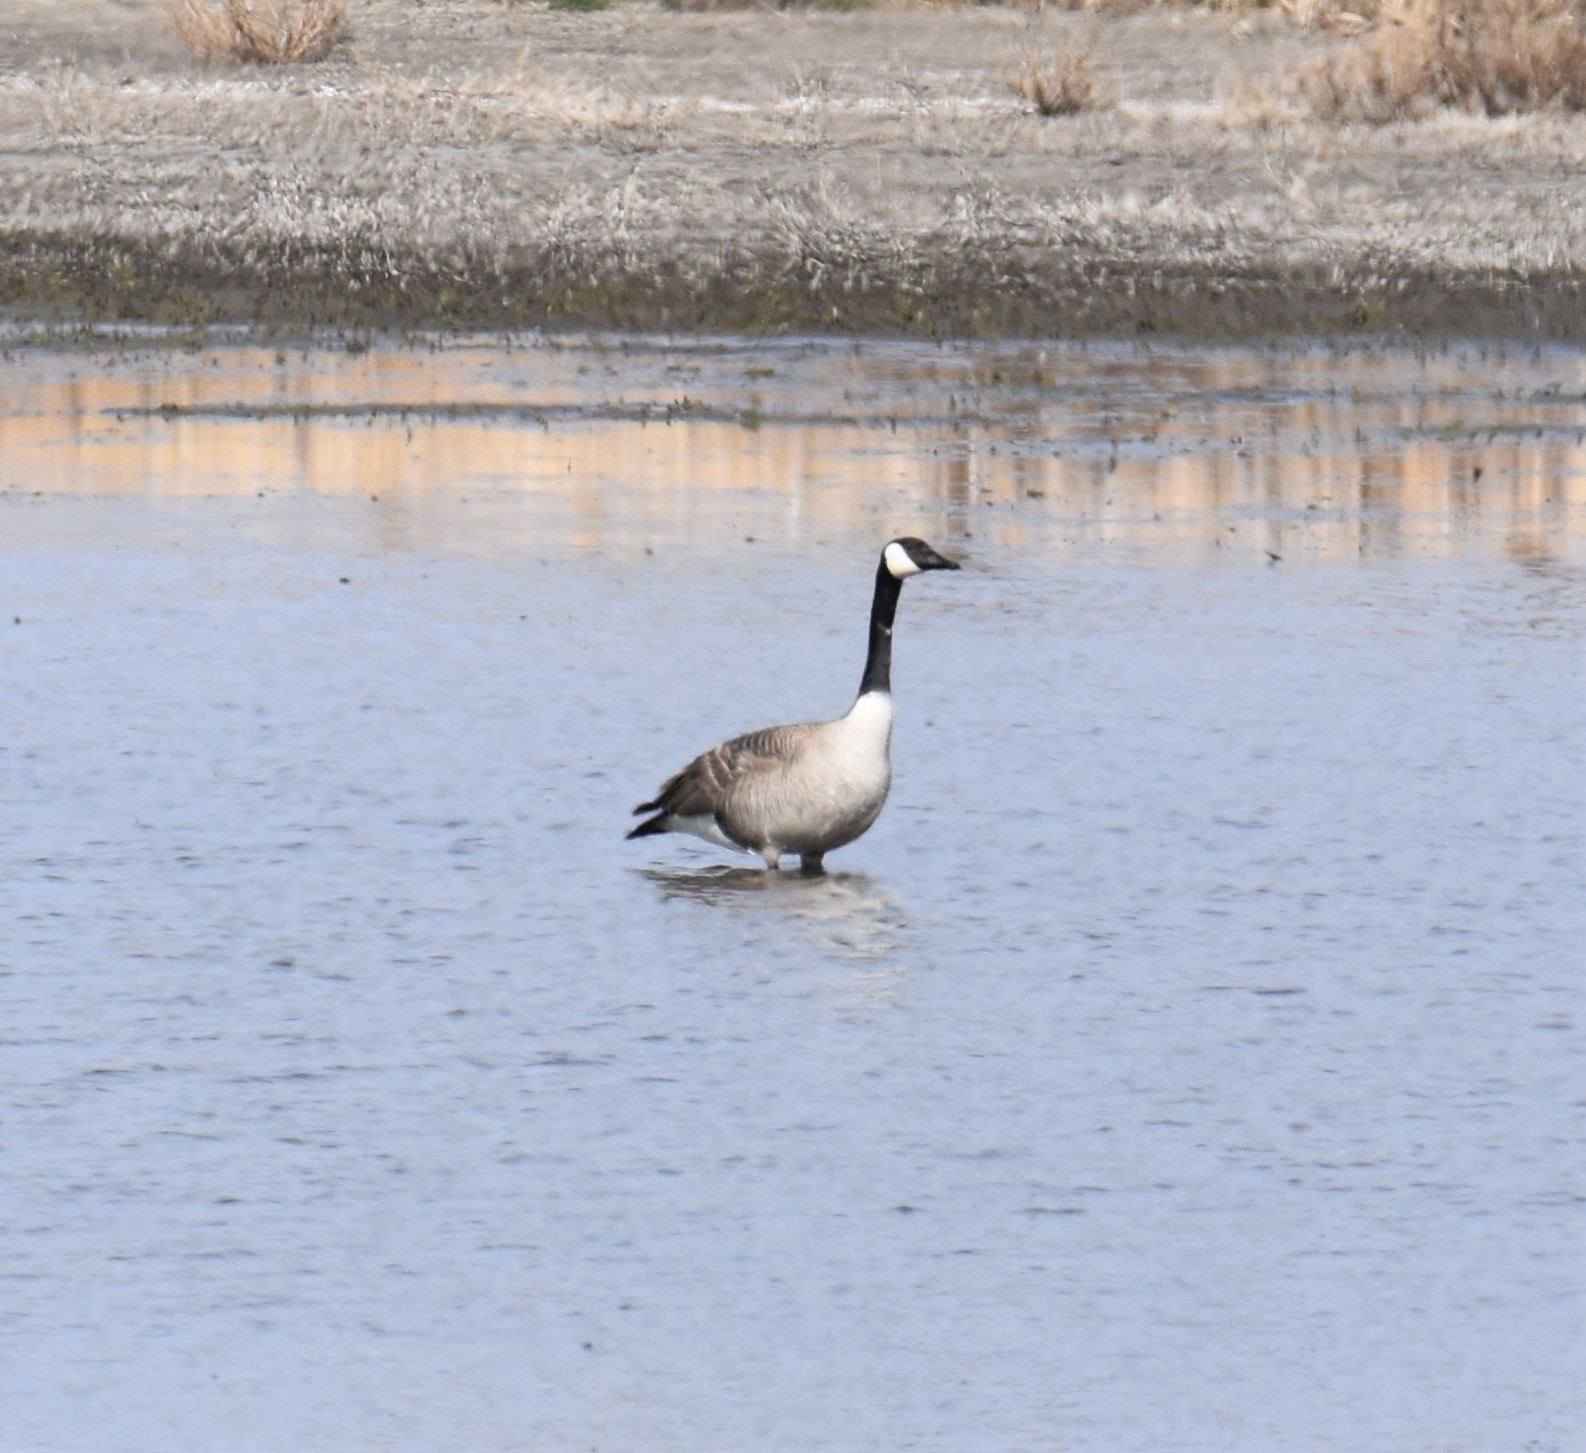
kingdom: Animalia
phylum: Chordata
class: Aves
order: Anseriformes
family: Anatidae
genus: Branta
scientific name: Branta canadensis
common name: Canada goose
